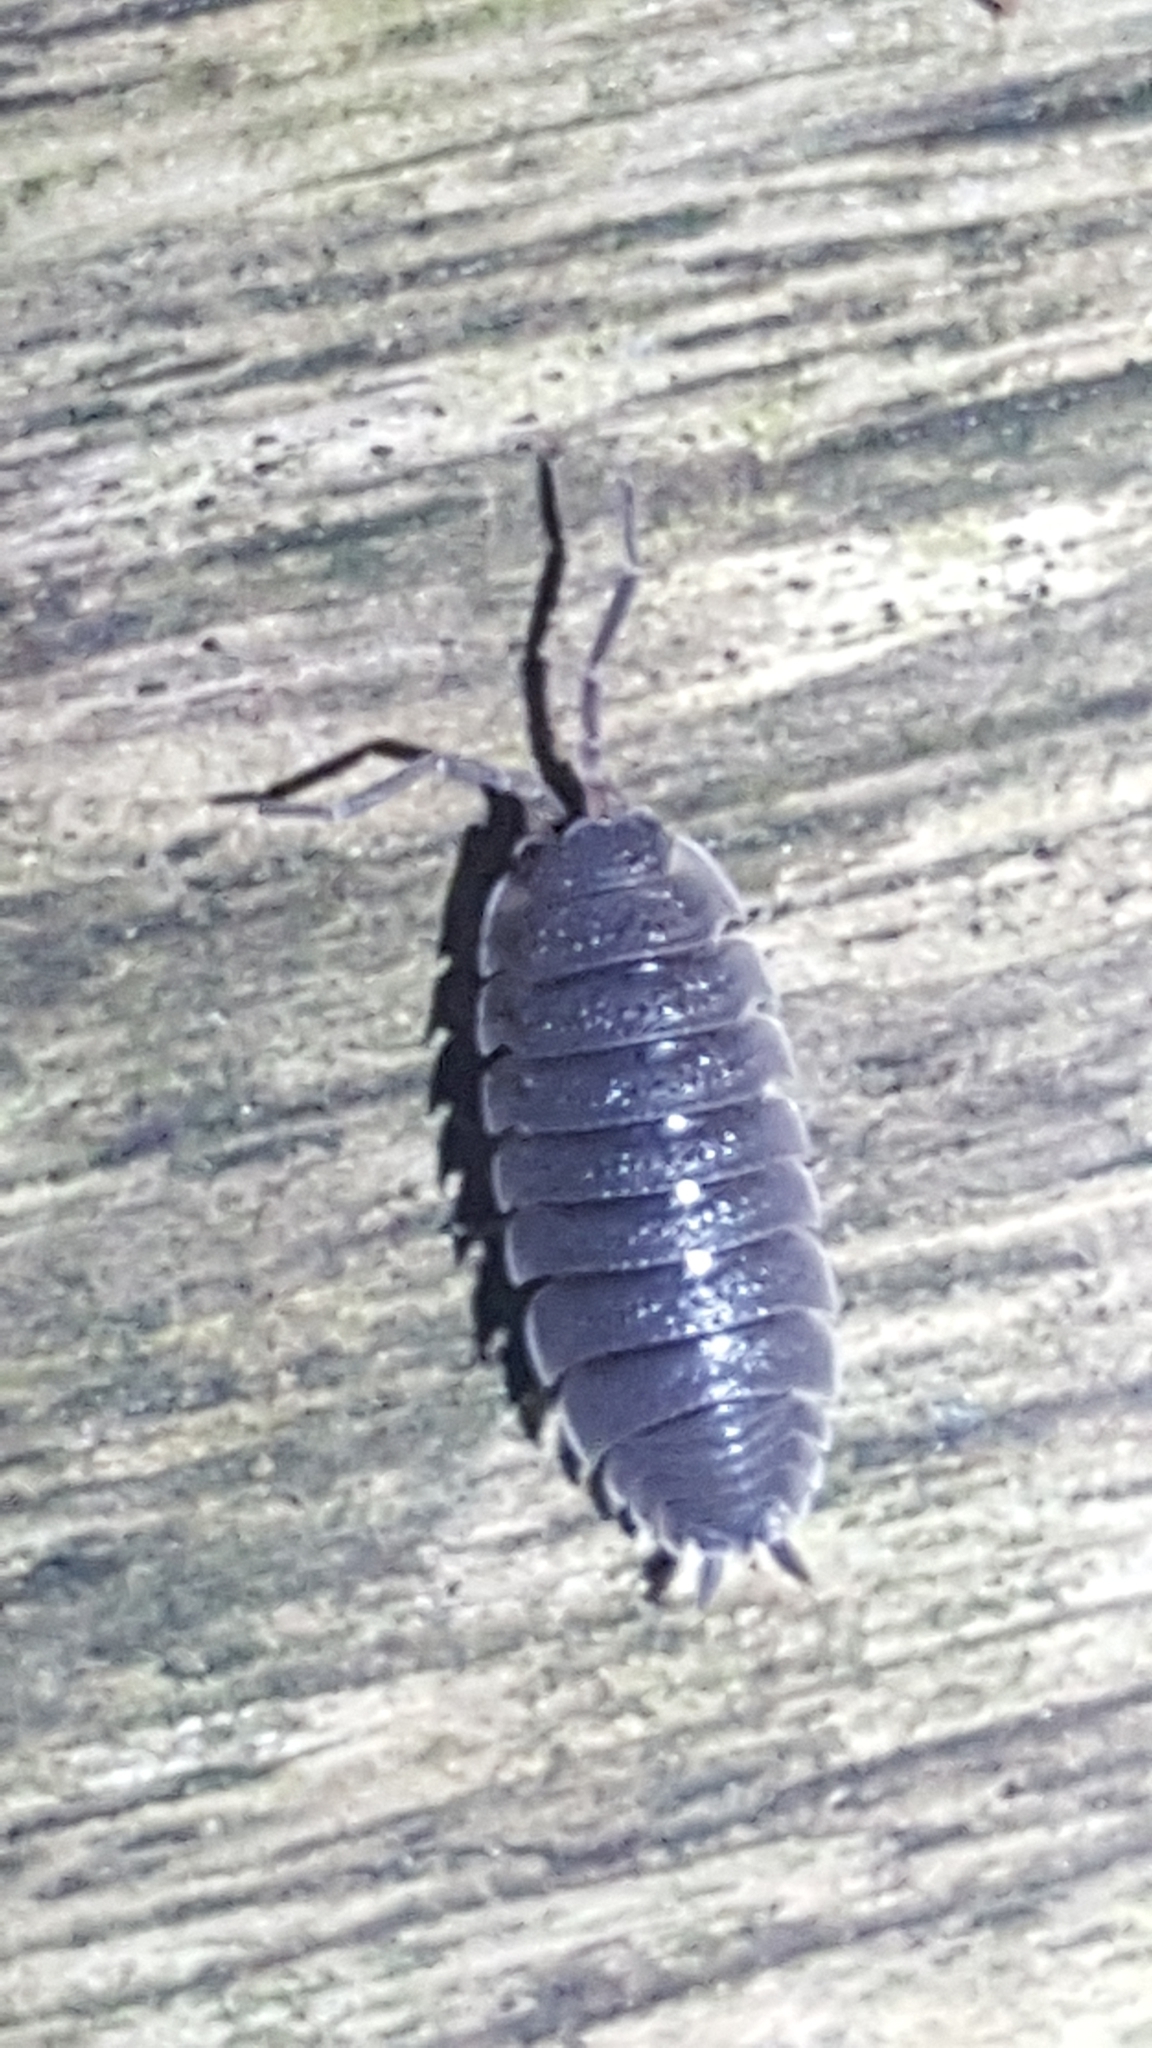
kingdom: Animalia
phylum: Arthropoda
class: Malacostraca
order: Isopoda
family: Porcellionidae
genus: Porcellio
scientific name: Porcellio scaber
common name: Common rough woodlouse
